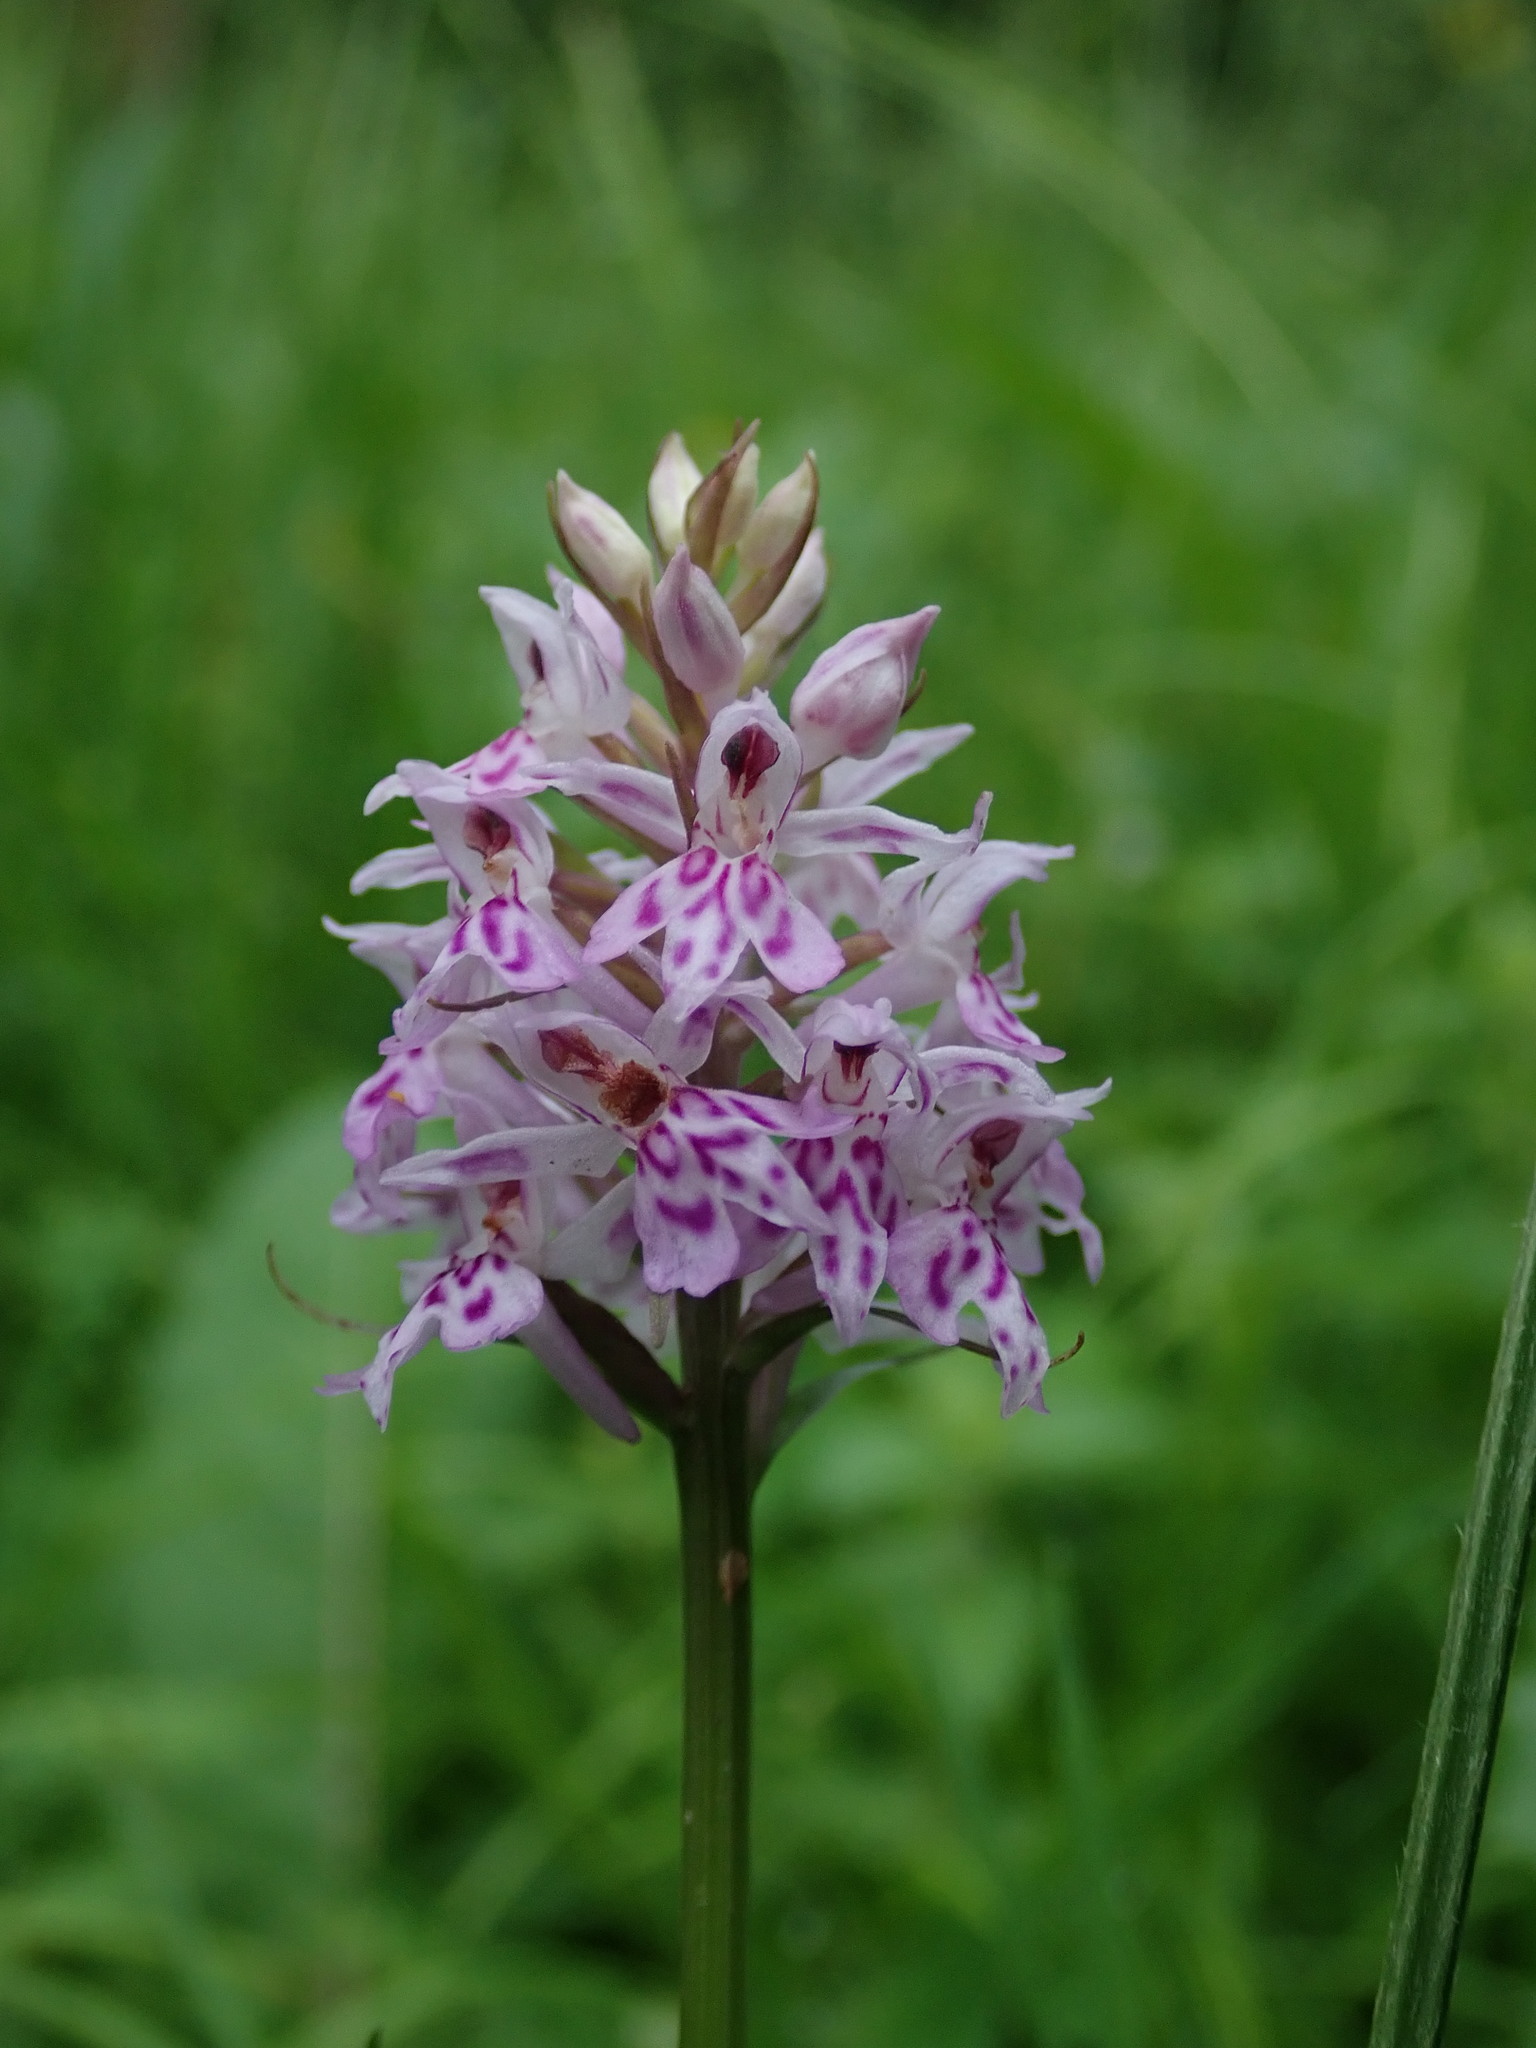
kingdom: Plantae
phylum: Tracheophyta
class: Liliopsida
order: Asparagales
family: Orchidaceae
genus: Dactylorhiza
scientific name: Dactylorhiza maculata
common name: Heath spotted-orchid
